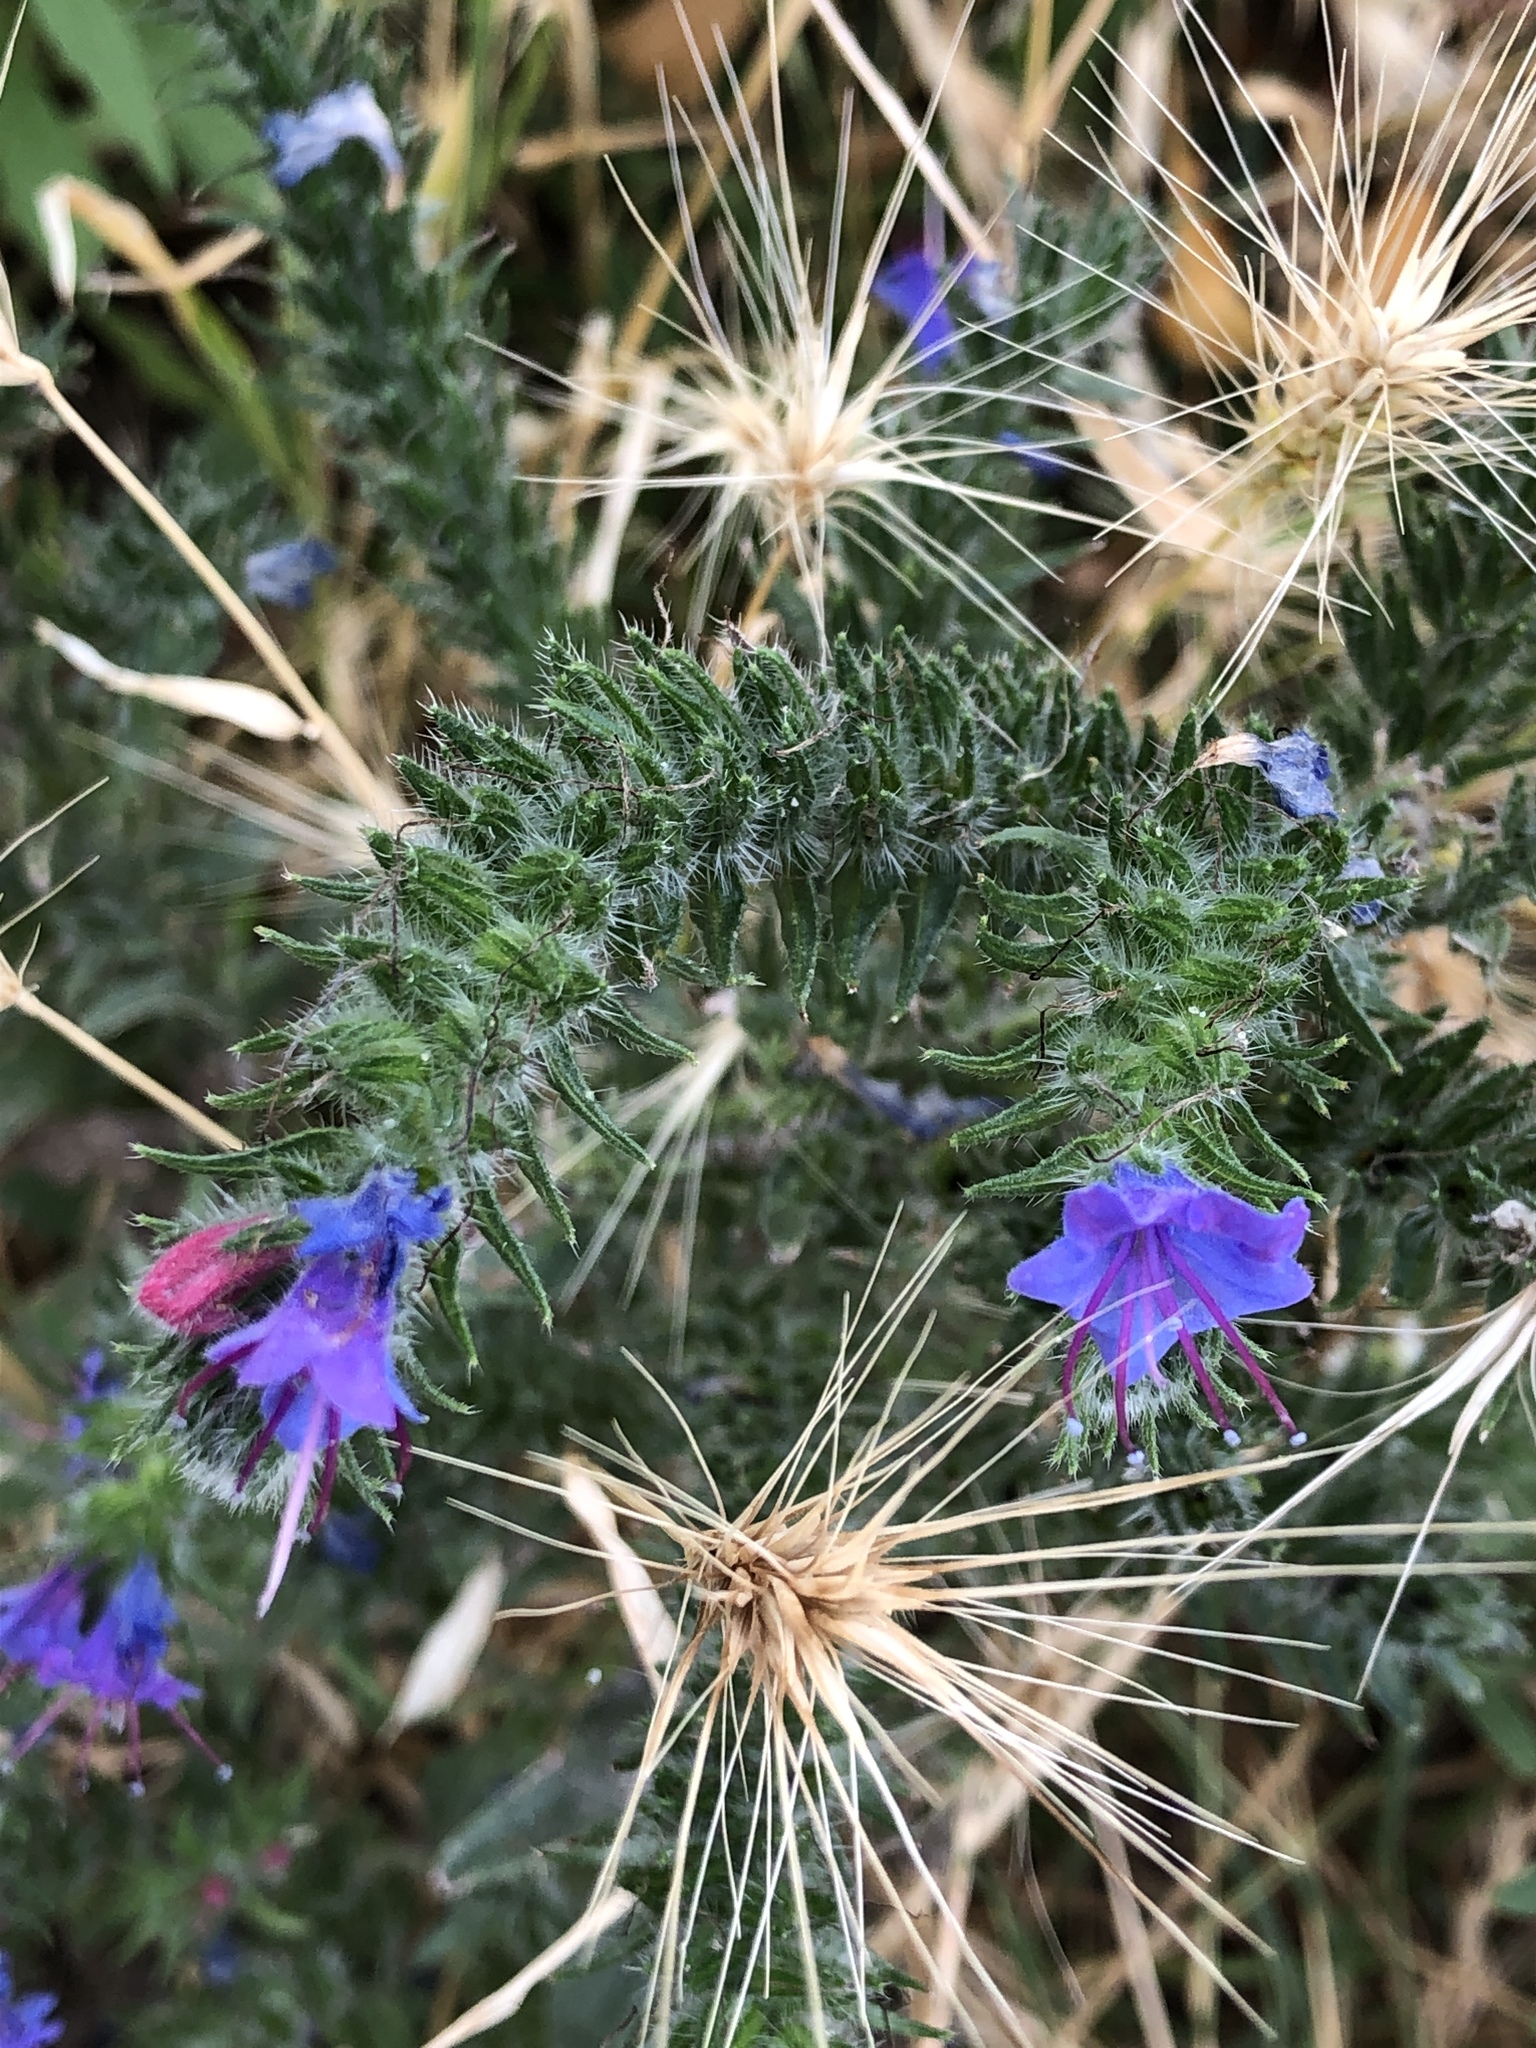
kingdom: Plantae
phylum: Tracheophyta
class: Magnoliopsida
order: Boraginales
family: Boraginaceae
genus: Echium
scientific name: Echium vulgare
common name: Common viper's bugloss
